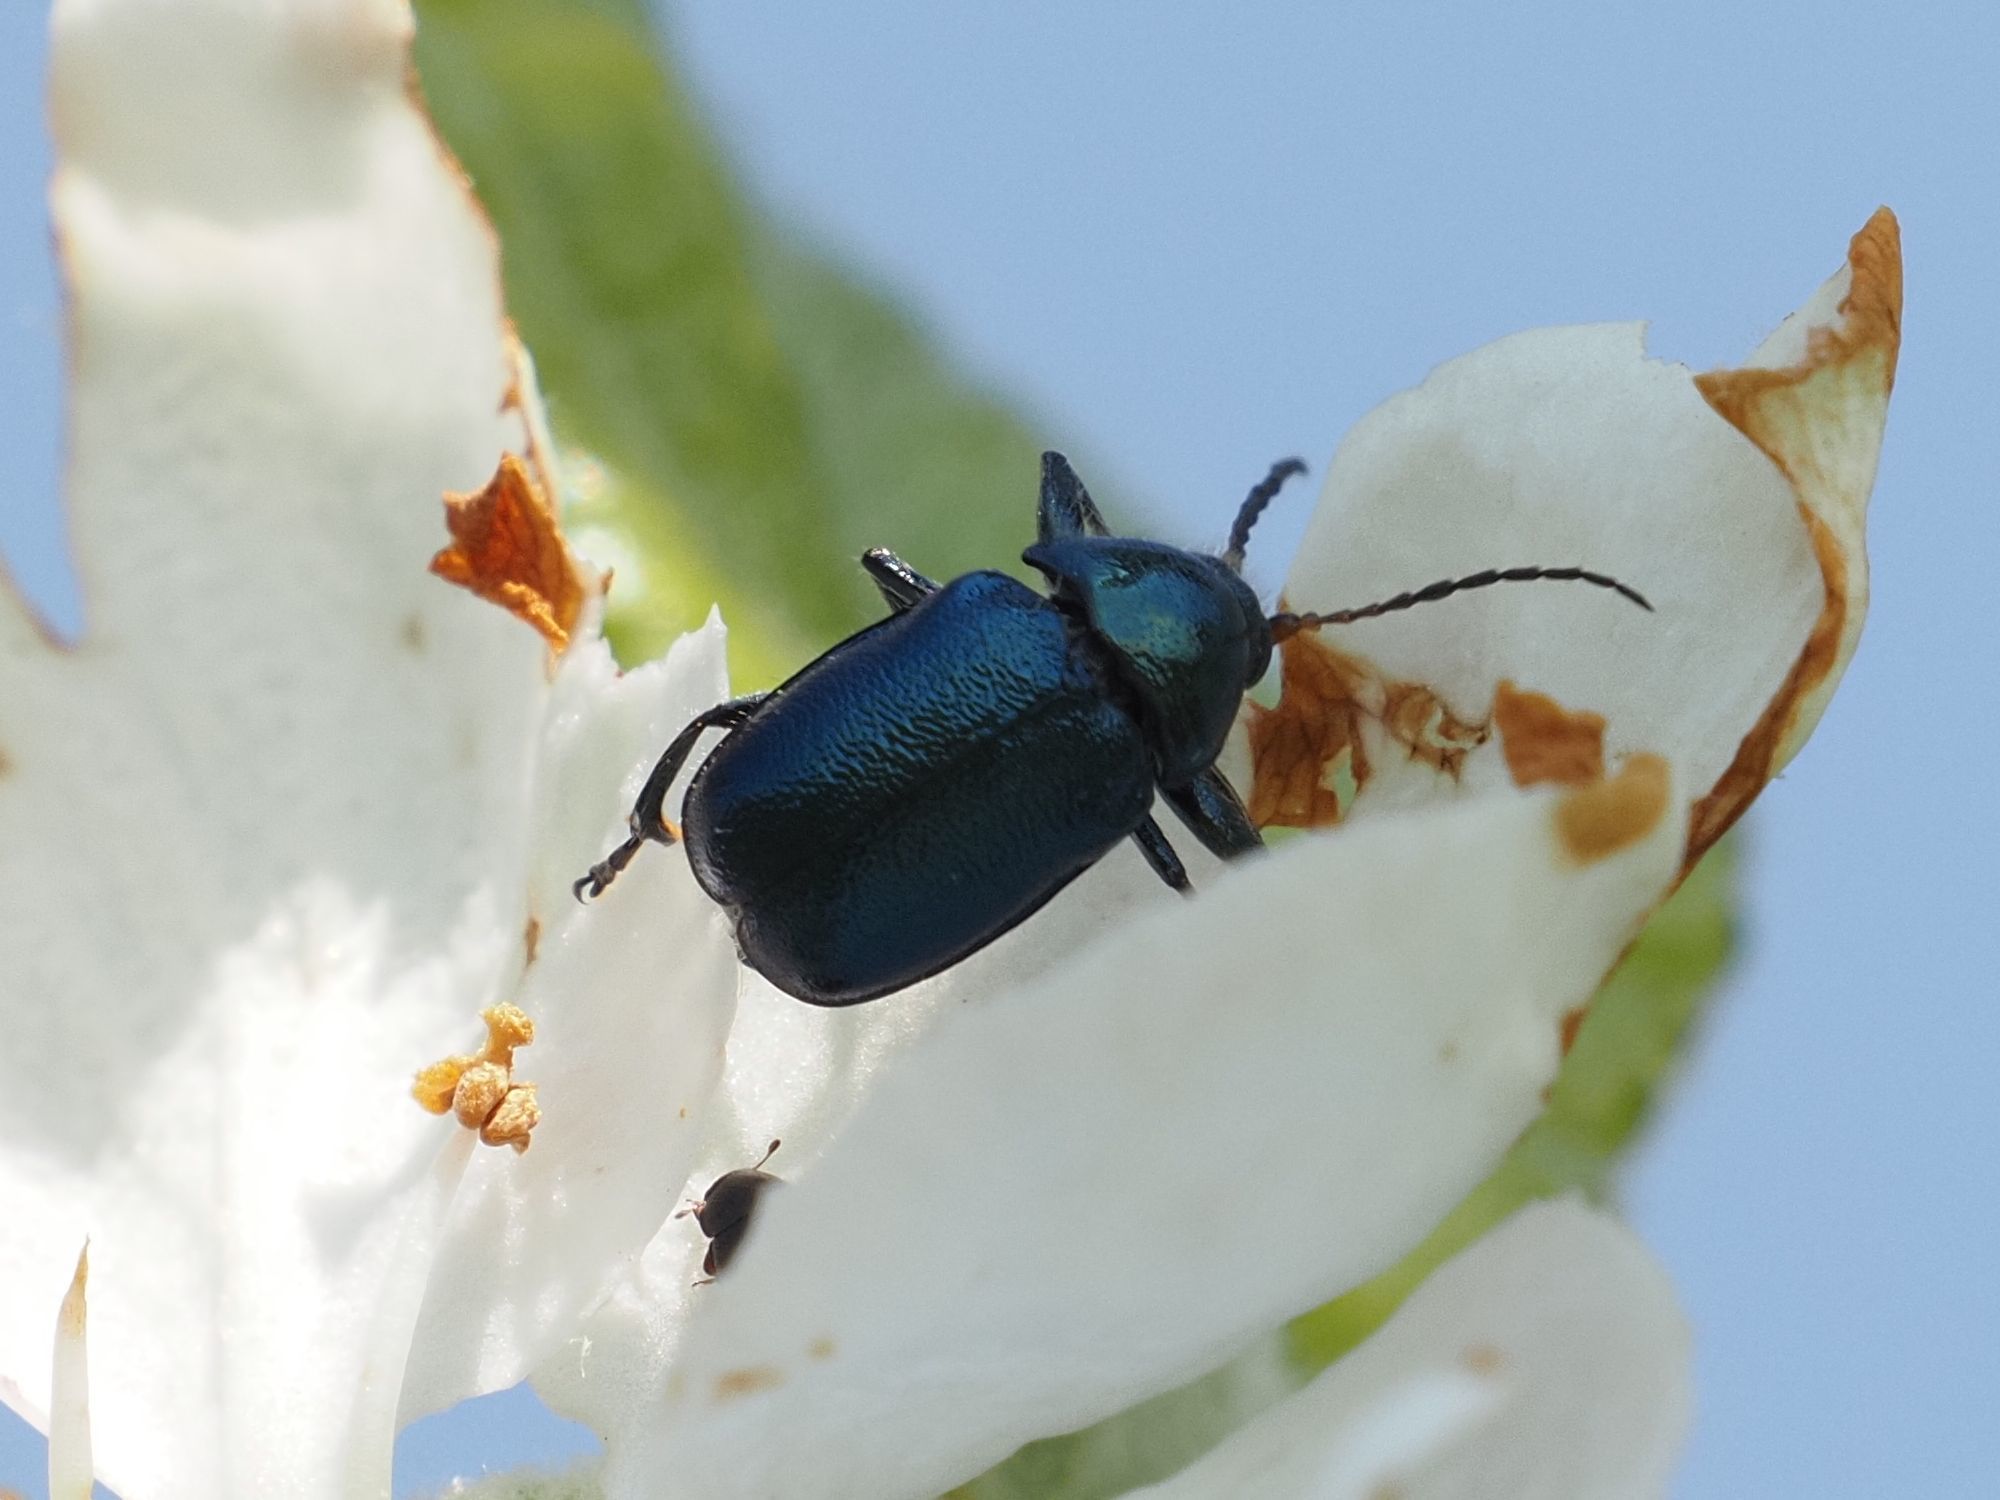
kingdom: Animalia
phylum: Arthropoda
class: Insecta
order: Coleoptera
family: Chrysomelidae
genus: Cryptocephalus
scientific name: Cryptocephalus schaefferi
